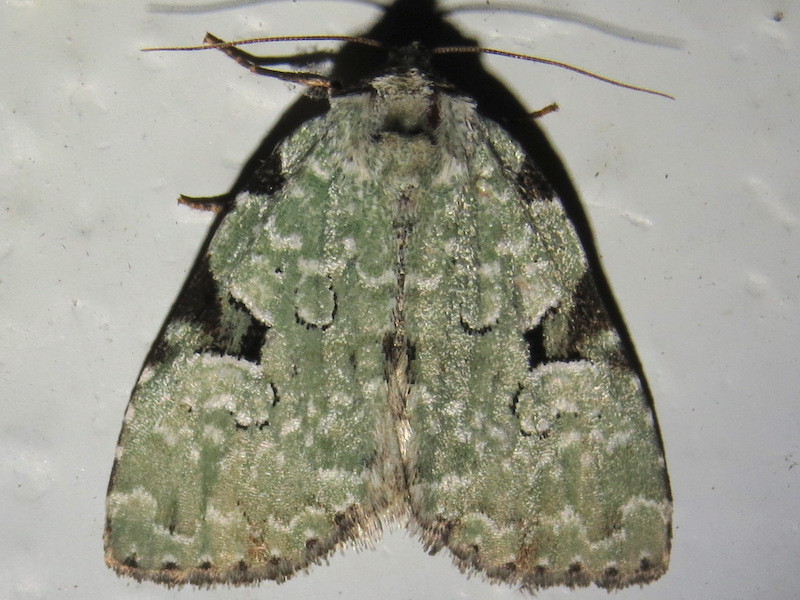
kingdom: Animalia
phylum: Arthropoda
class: Insecta
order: Lepidoptera
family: Noctuidae
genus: Leuconycta
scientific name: Leuconycta diphteroides
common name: Green leuconycta moth
